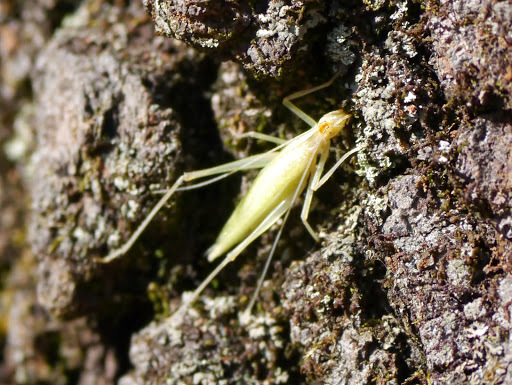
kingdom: Animalia
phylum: Arthropoda
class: Insecta
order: Orthoptera
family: Gryllidae
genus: Oecanthus
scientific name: Oecanthus niveus
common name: Narrow-winged tree cricket
